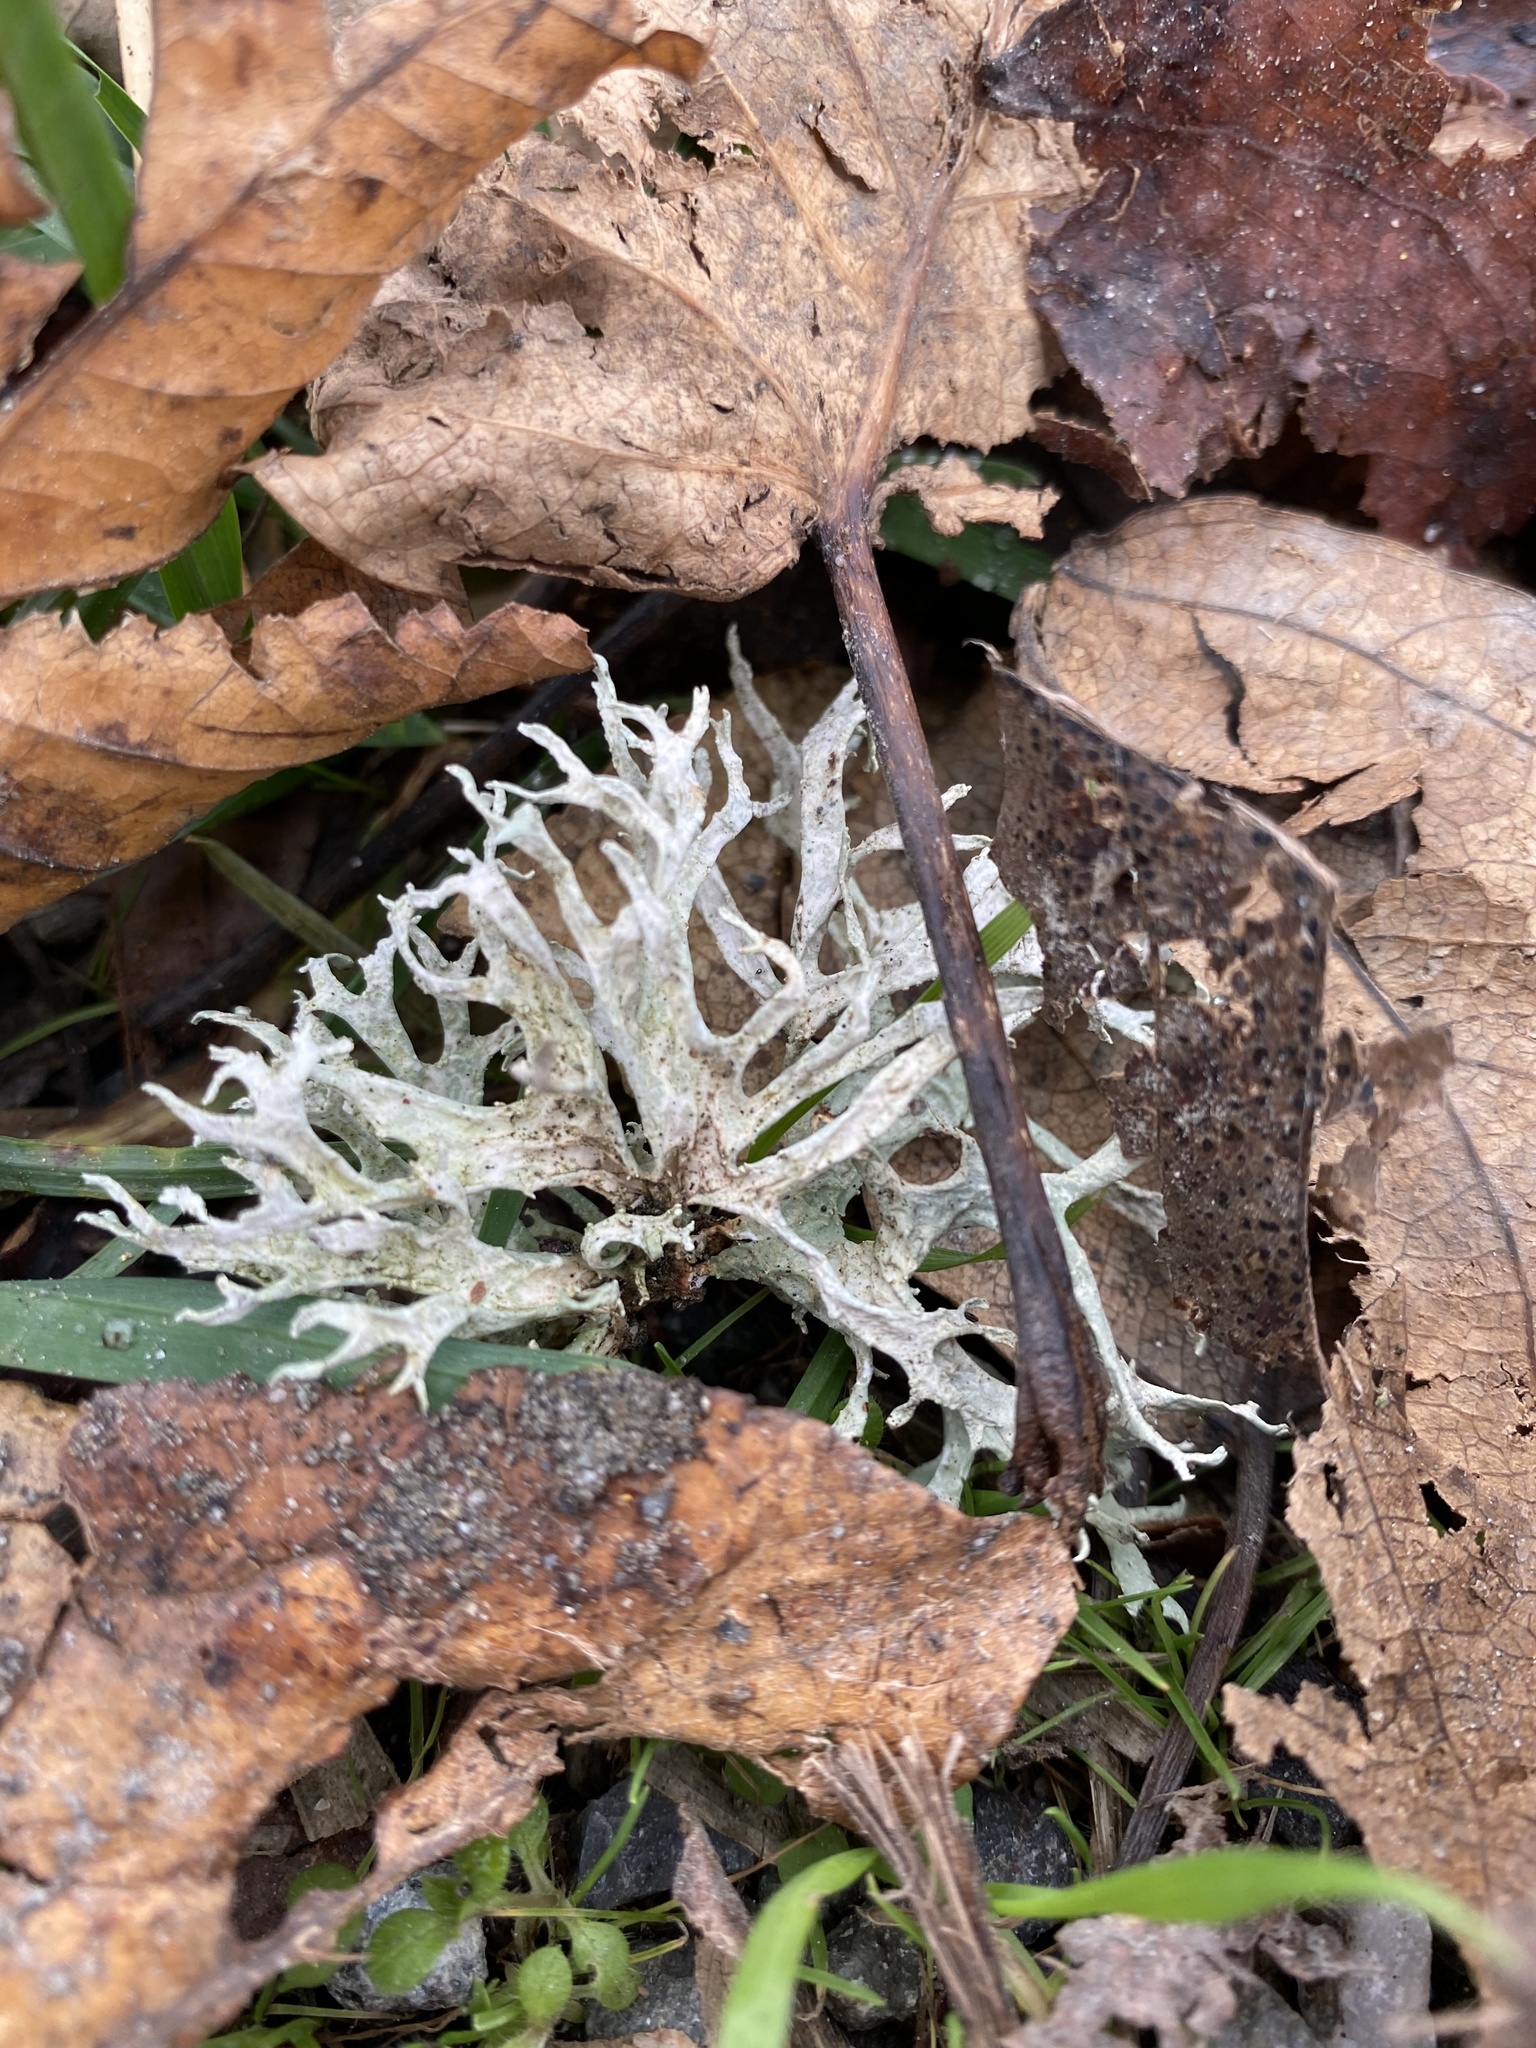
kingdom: Fungi
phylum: Ascomycota
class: Lecanoromycetes
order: Lecanorales
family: Parmeliaceae
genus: Evernia
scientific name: Evernia prunastri
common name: Oak moss
